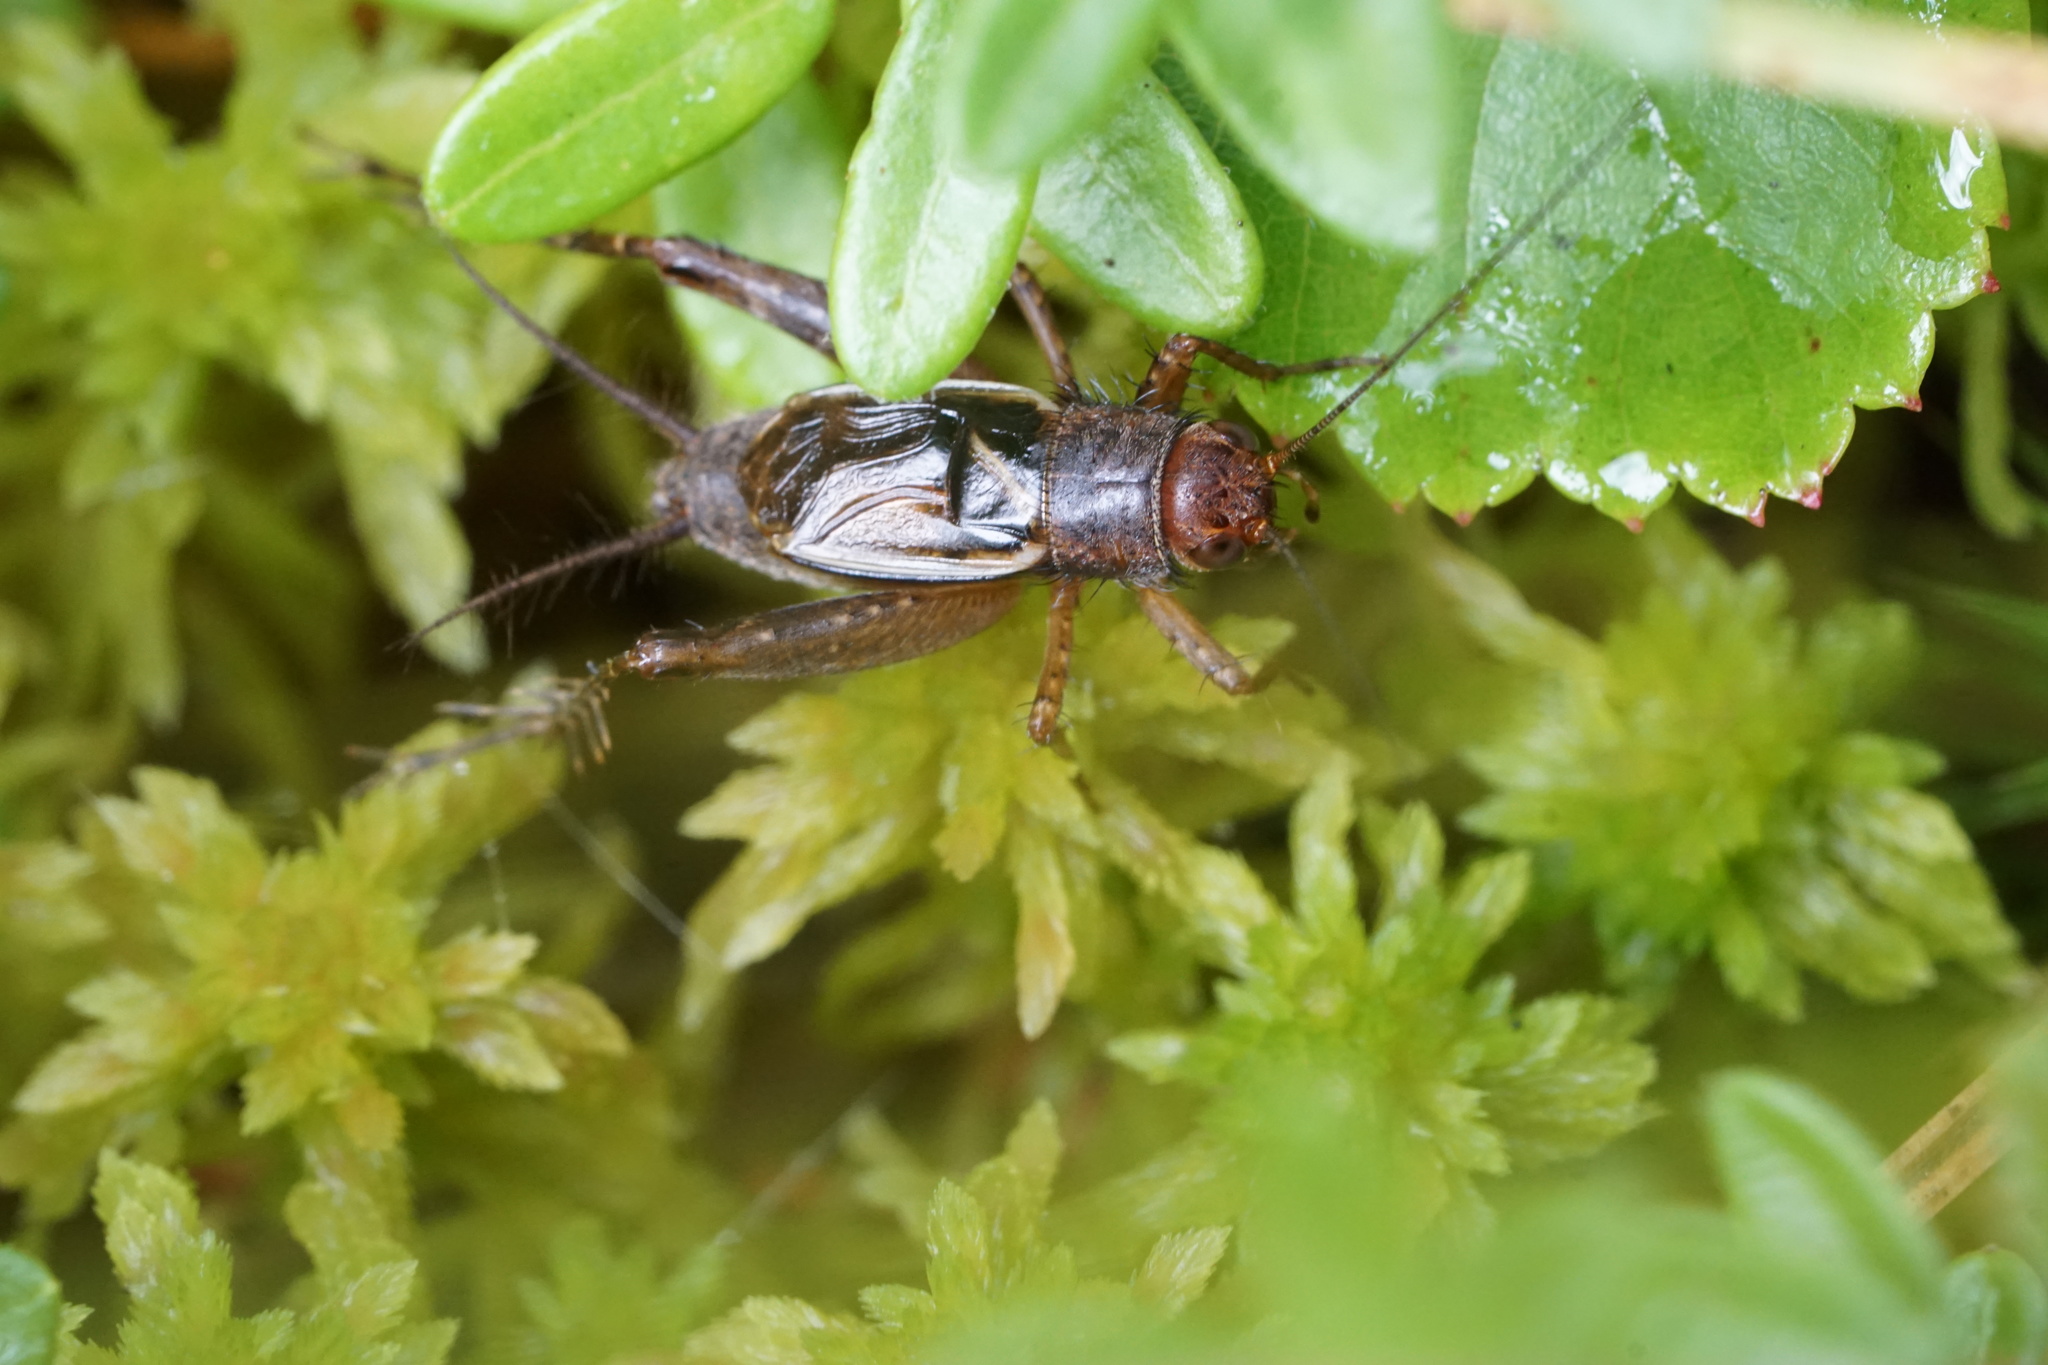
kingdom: Animalia
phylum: Arthropoda
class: Insecta
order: Orthoptera
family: Trigonidiidae
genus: Allonemobius
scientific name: Allonemobius tinnulus
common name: Tinkling ground cricket
